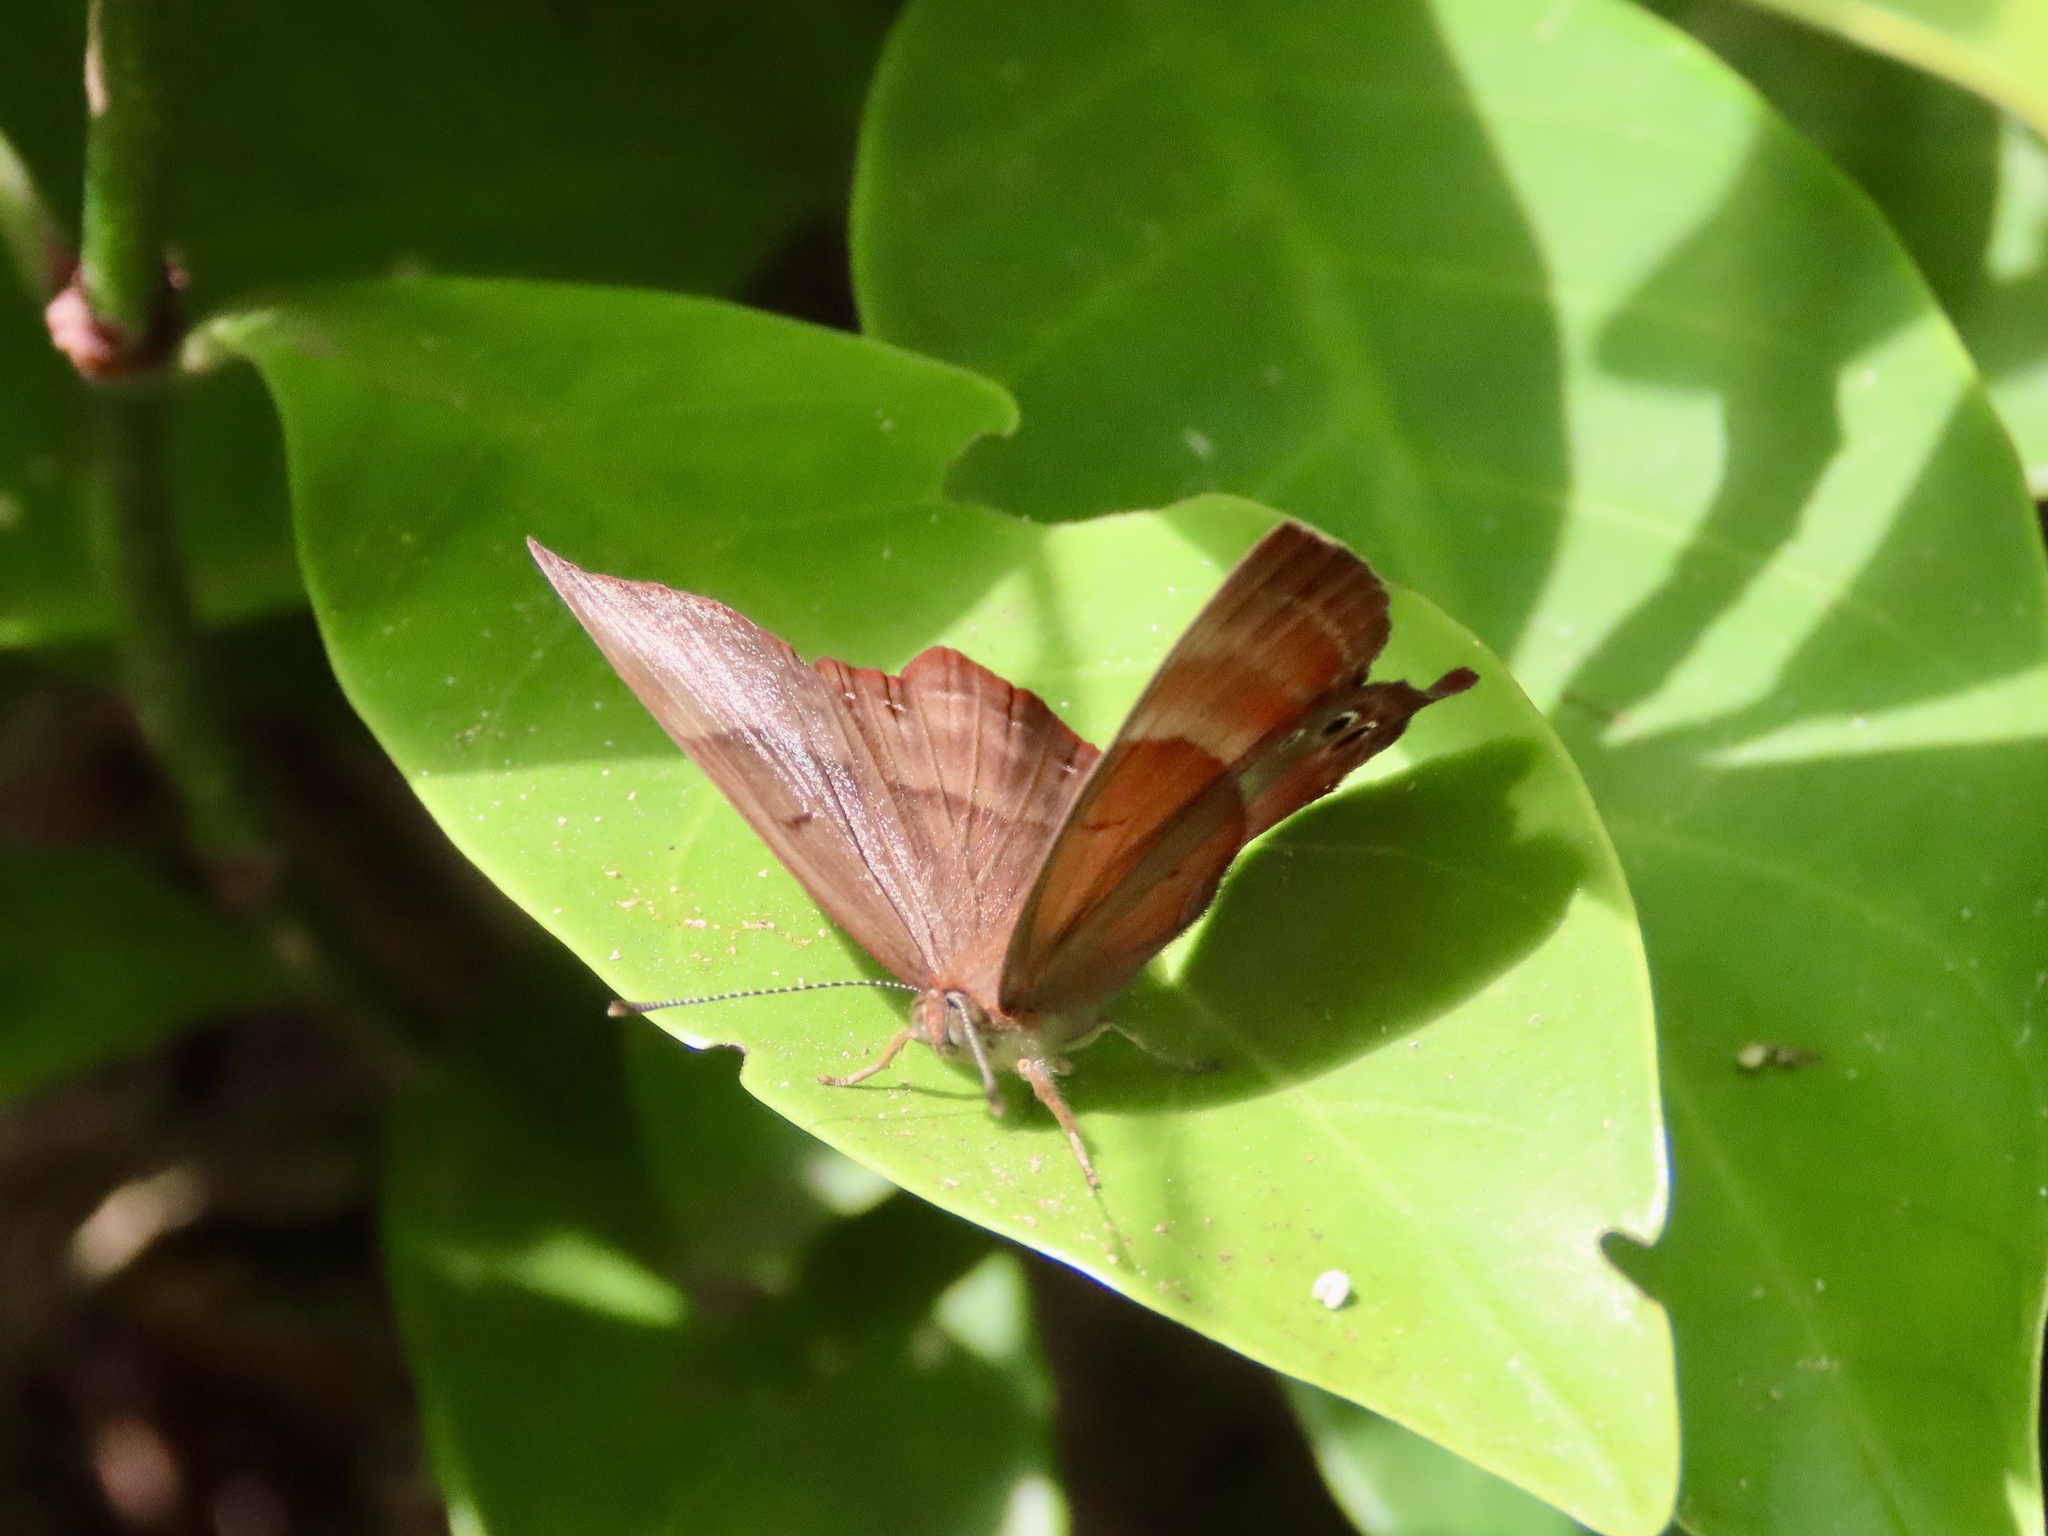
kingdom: Animalia
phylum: Arthropoda
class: Insecta
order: Lepidoptera
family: Lycaenidae
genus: Abisara
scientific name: Abisara echeria
